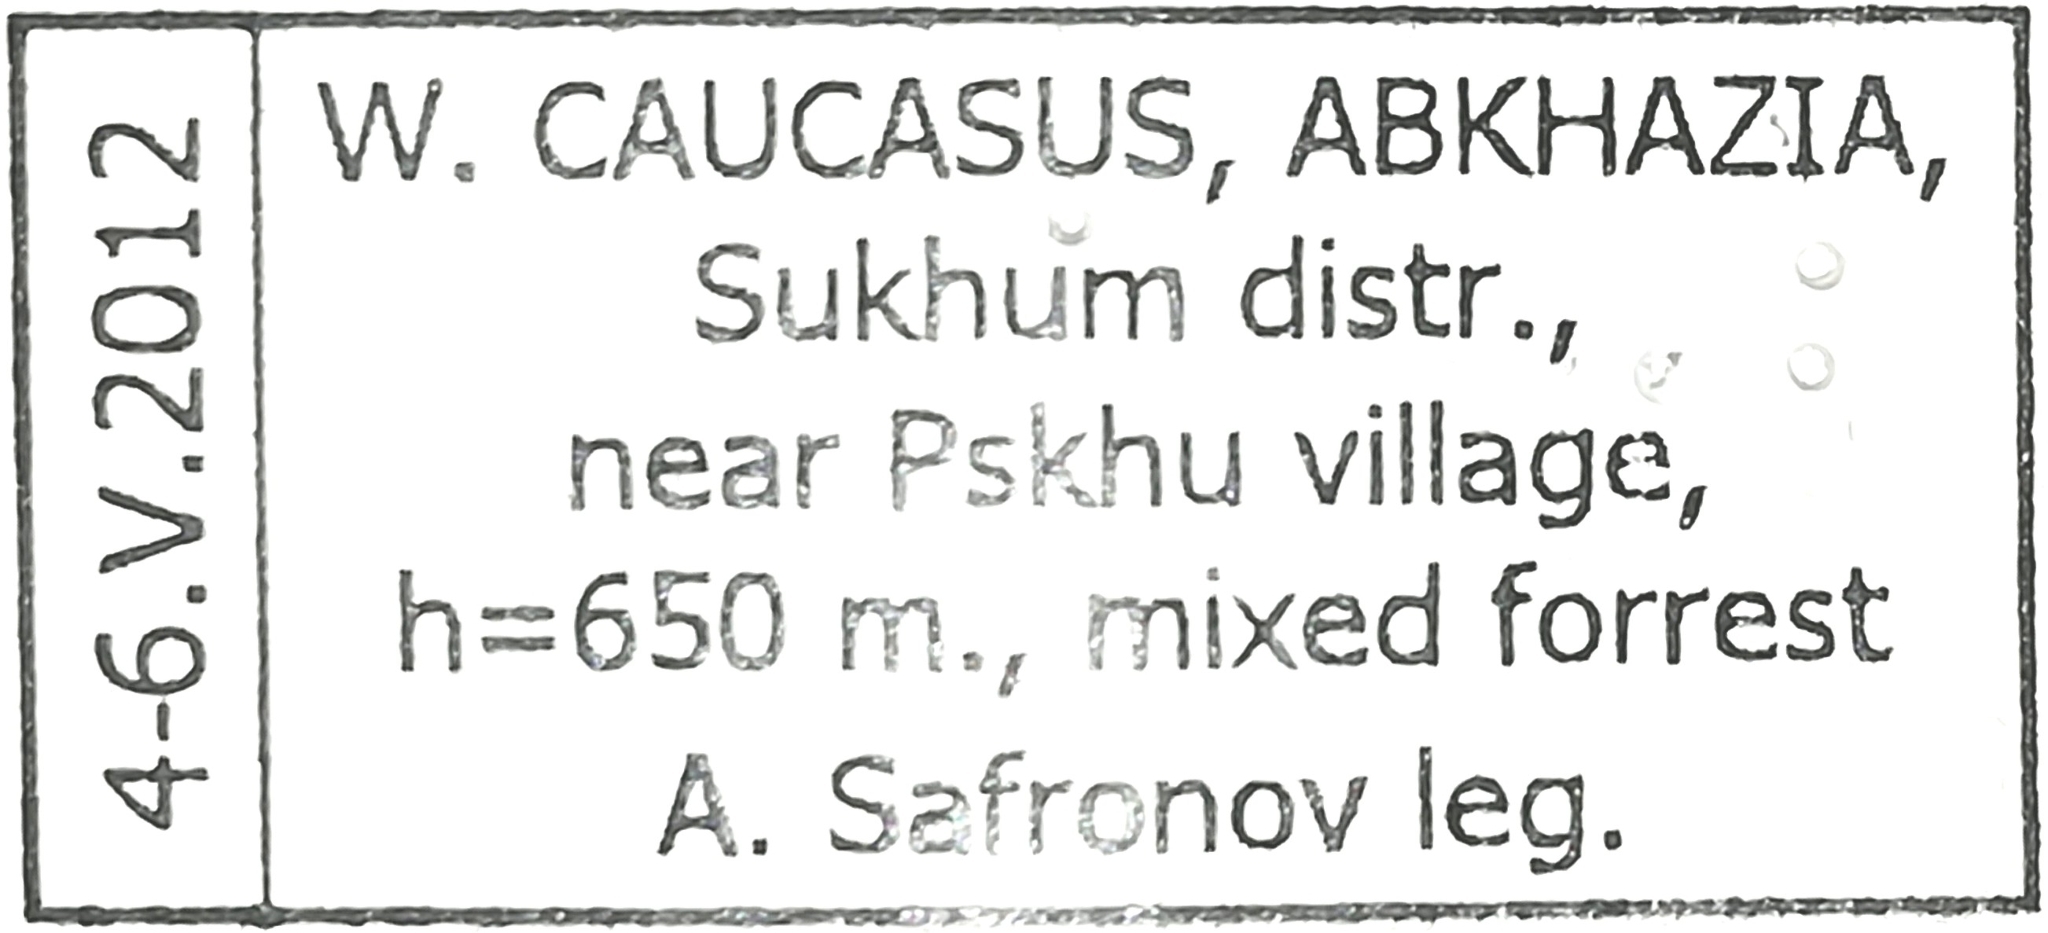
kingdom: Animalia
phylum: Arthropoda
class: Insecta
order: Lepidoptera
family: Papilionidae
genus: Zerynthia
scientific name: Zerynthia caucasica
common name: Caucasian festoon
